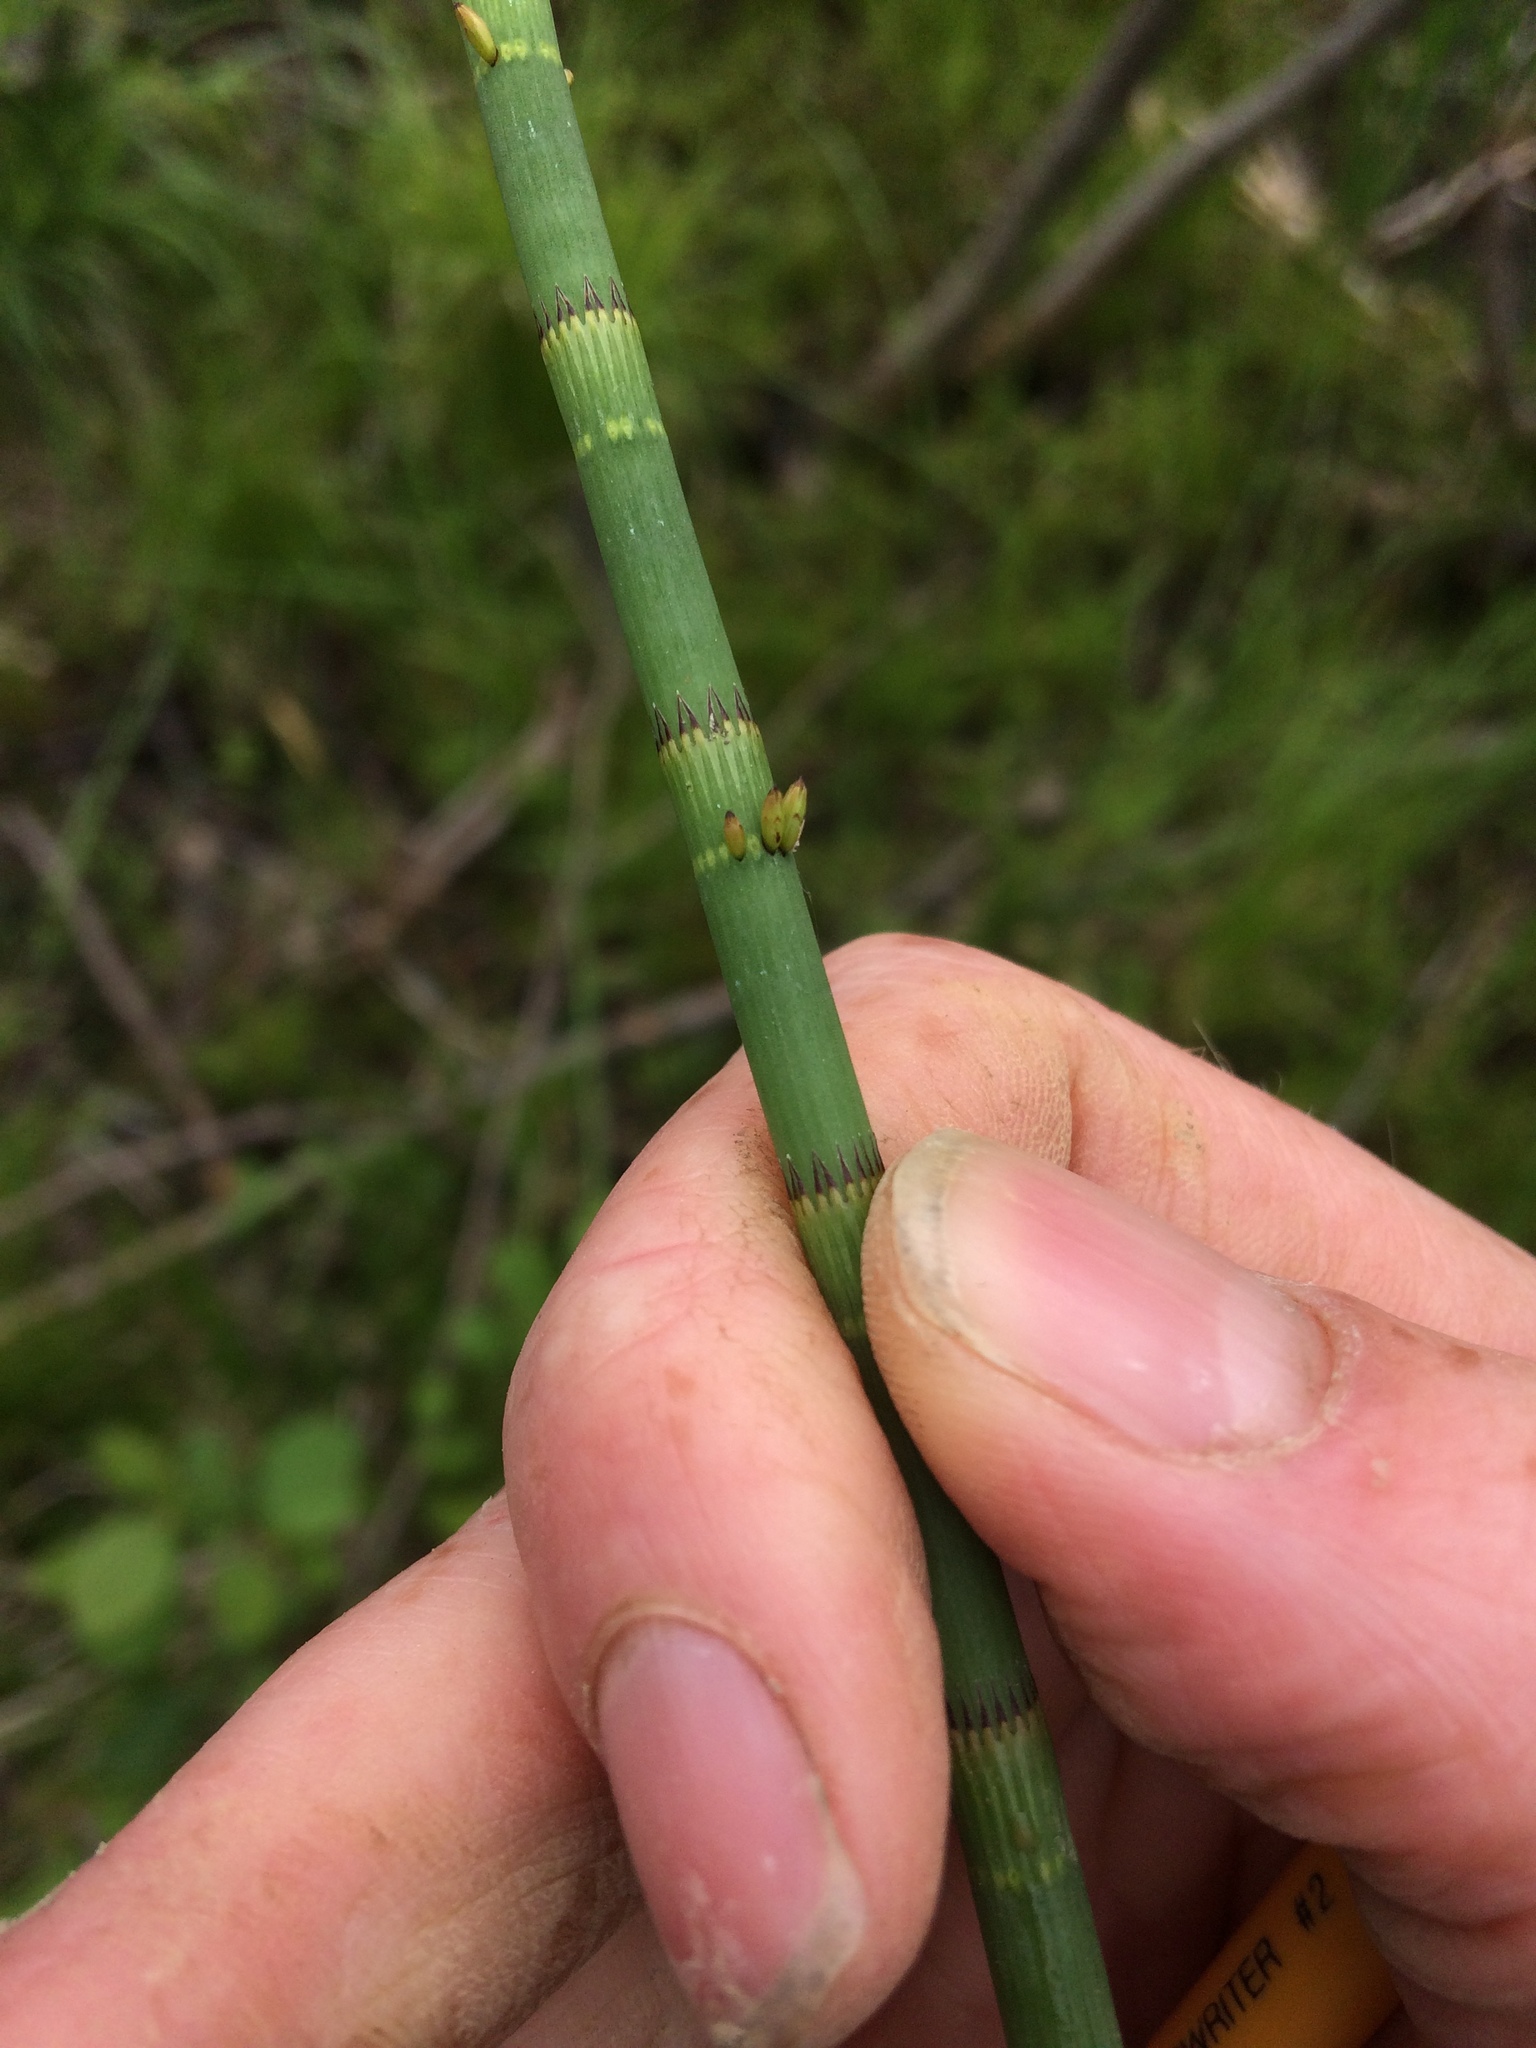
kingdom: Plantae
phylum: Tracheophyta
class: Polypodiopsida
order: Equisetales
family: Equisetaceae
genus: Equisetum
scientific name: Equisetum fluviatile
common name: Water horsetail
